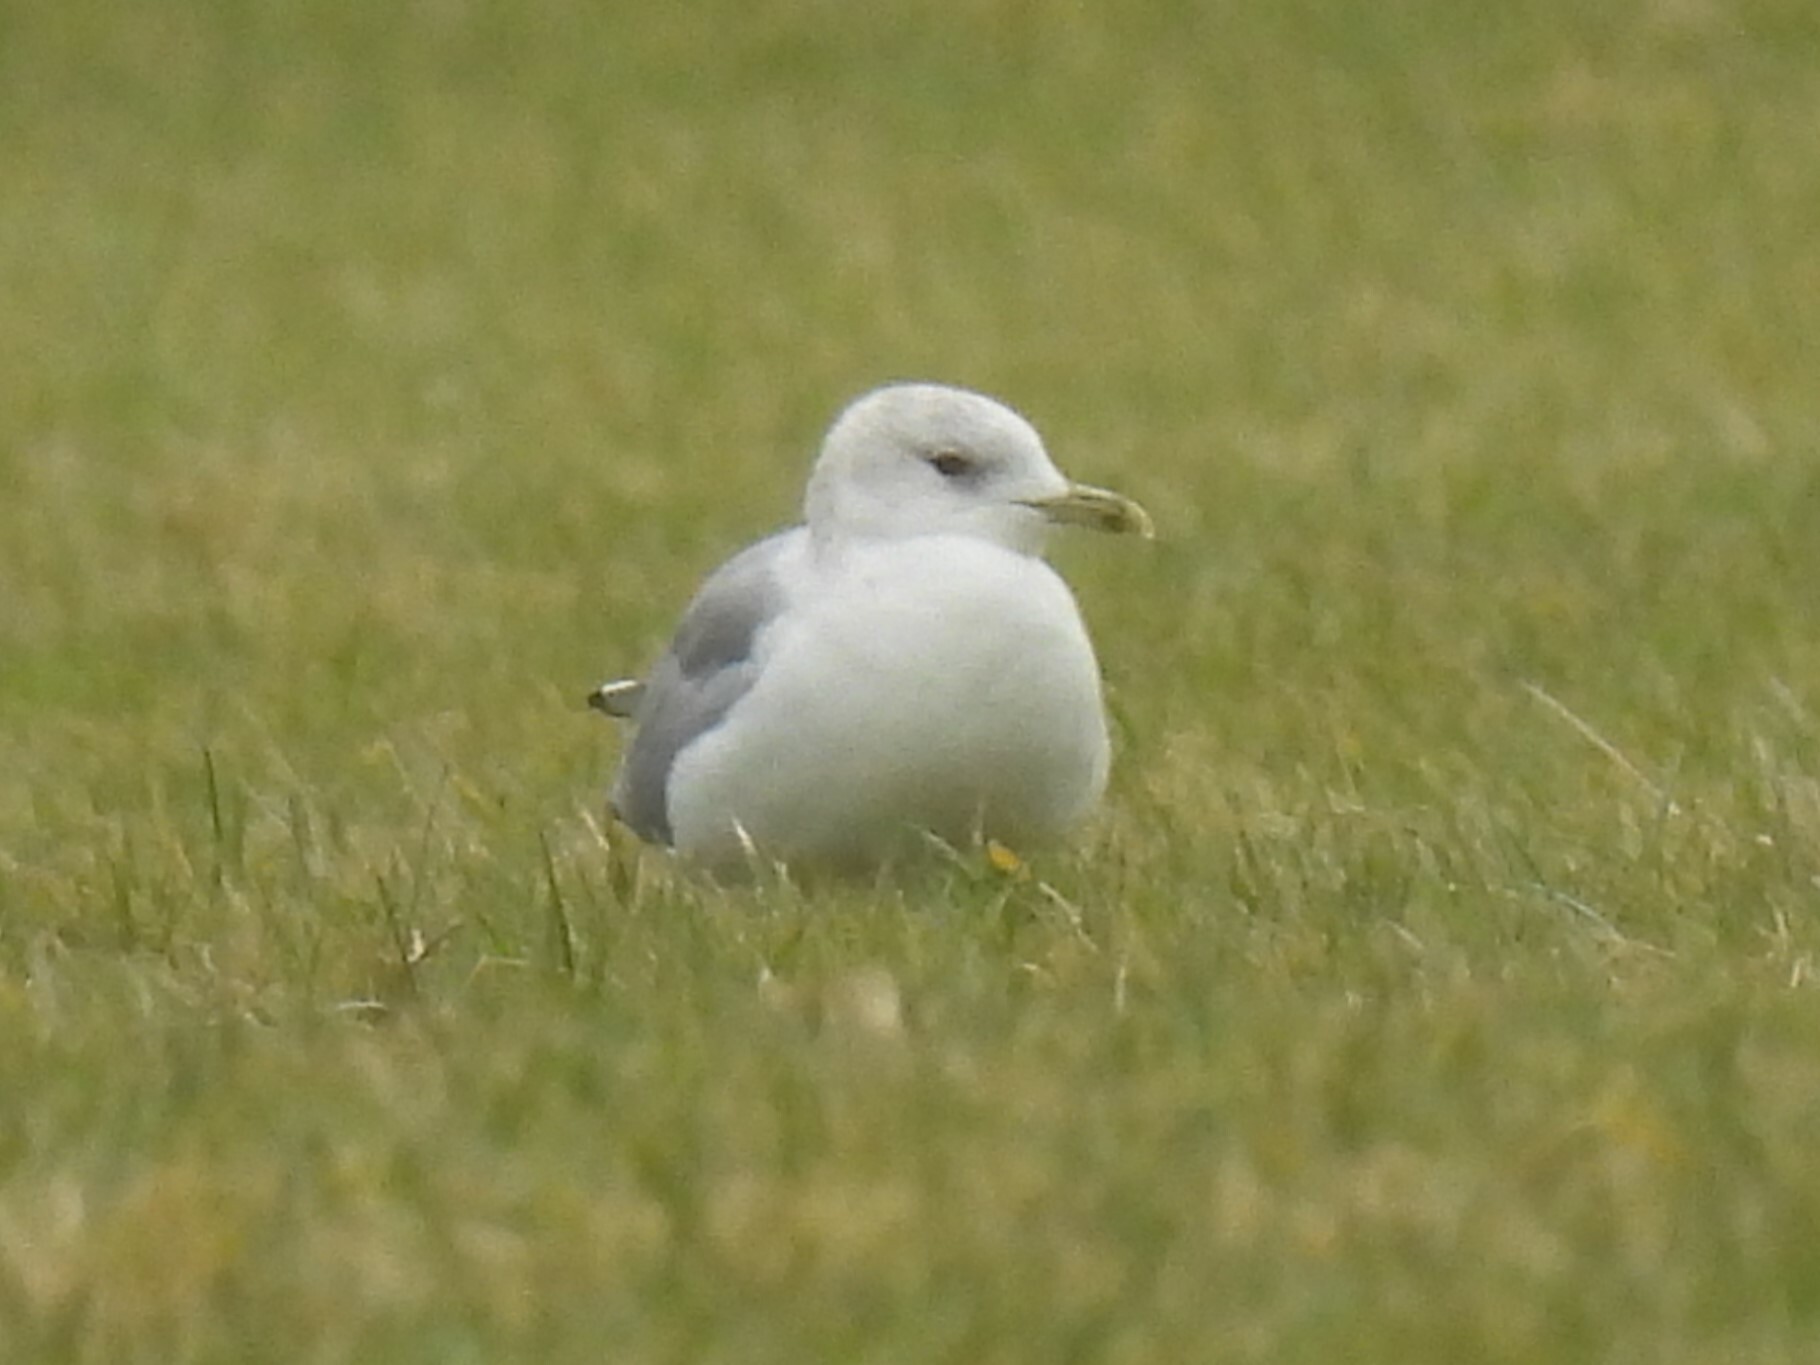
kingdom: Animalia
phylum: Chordata
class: Aves
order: Charadriiformes
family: Laridae
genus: Larus
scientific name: Larus canus
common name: Mew gull
